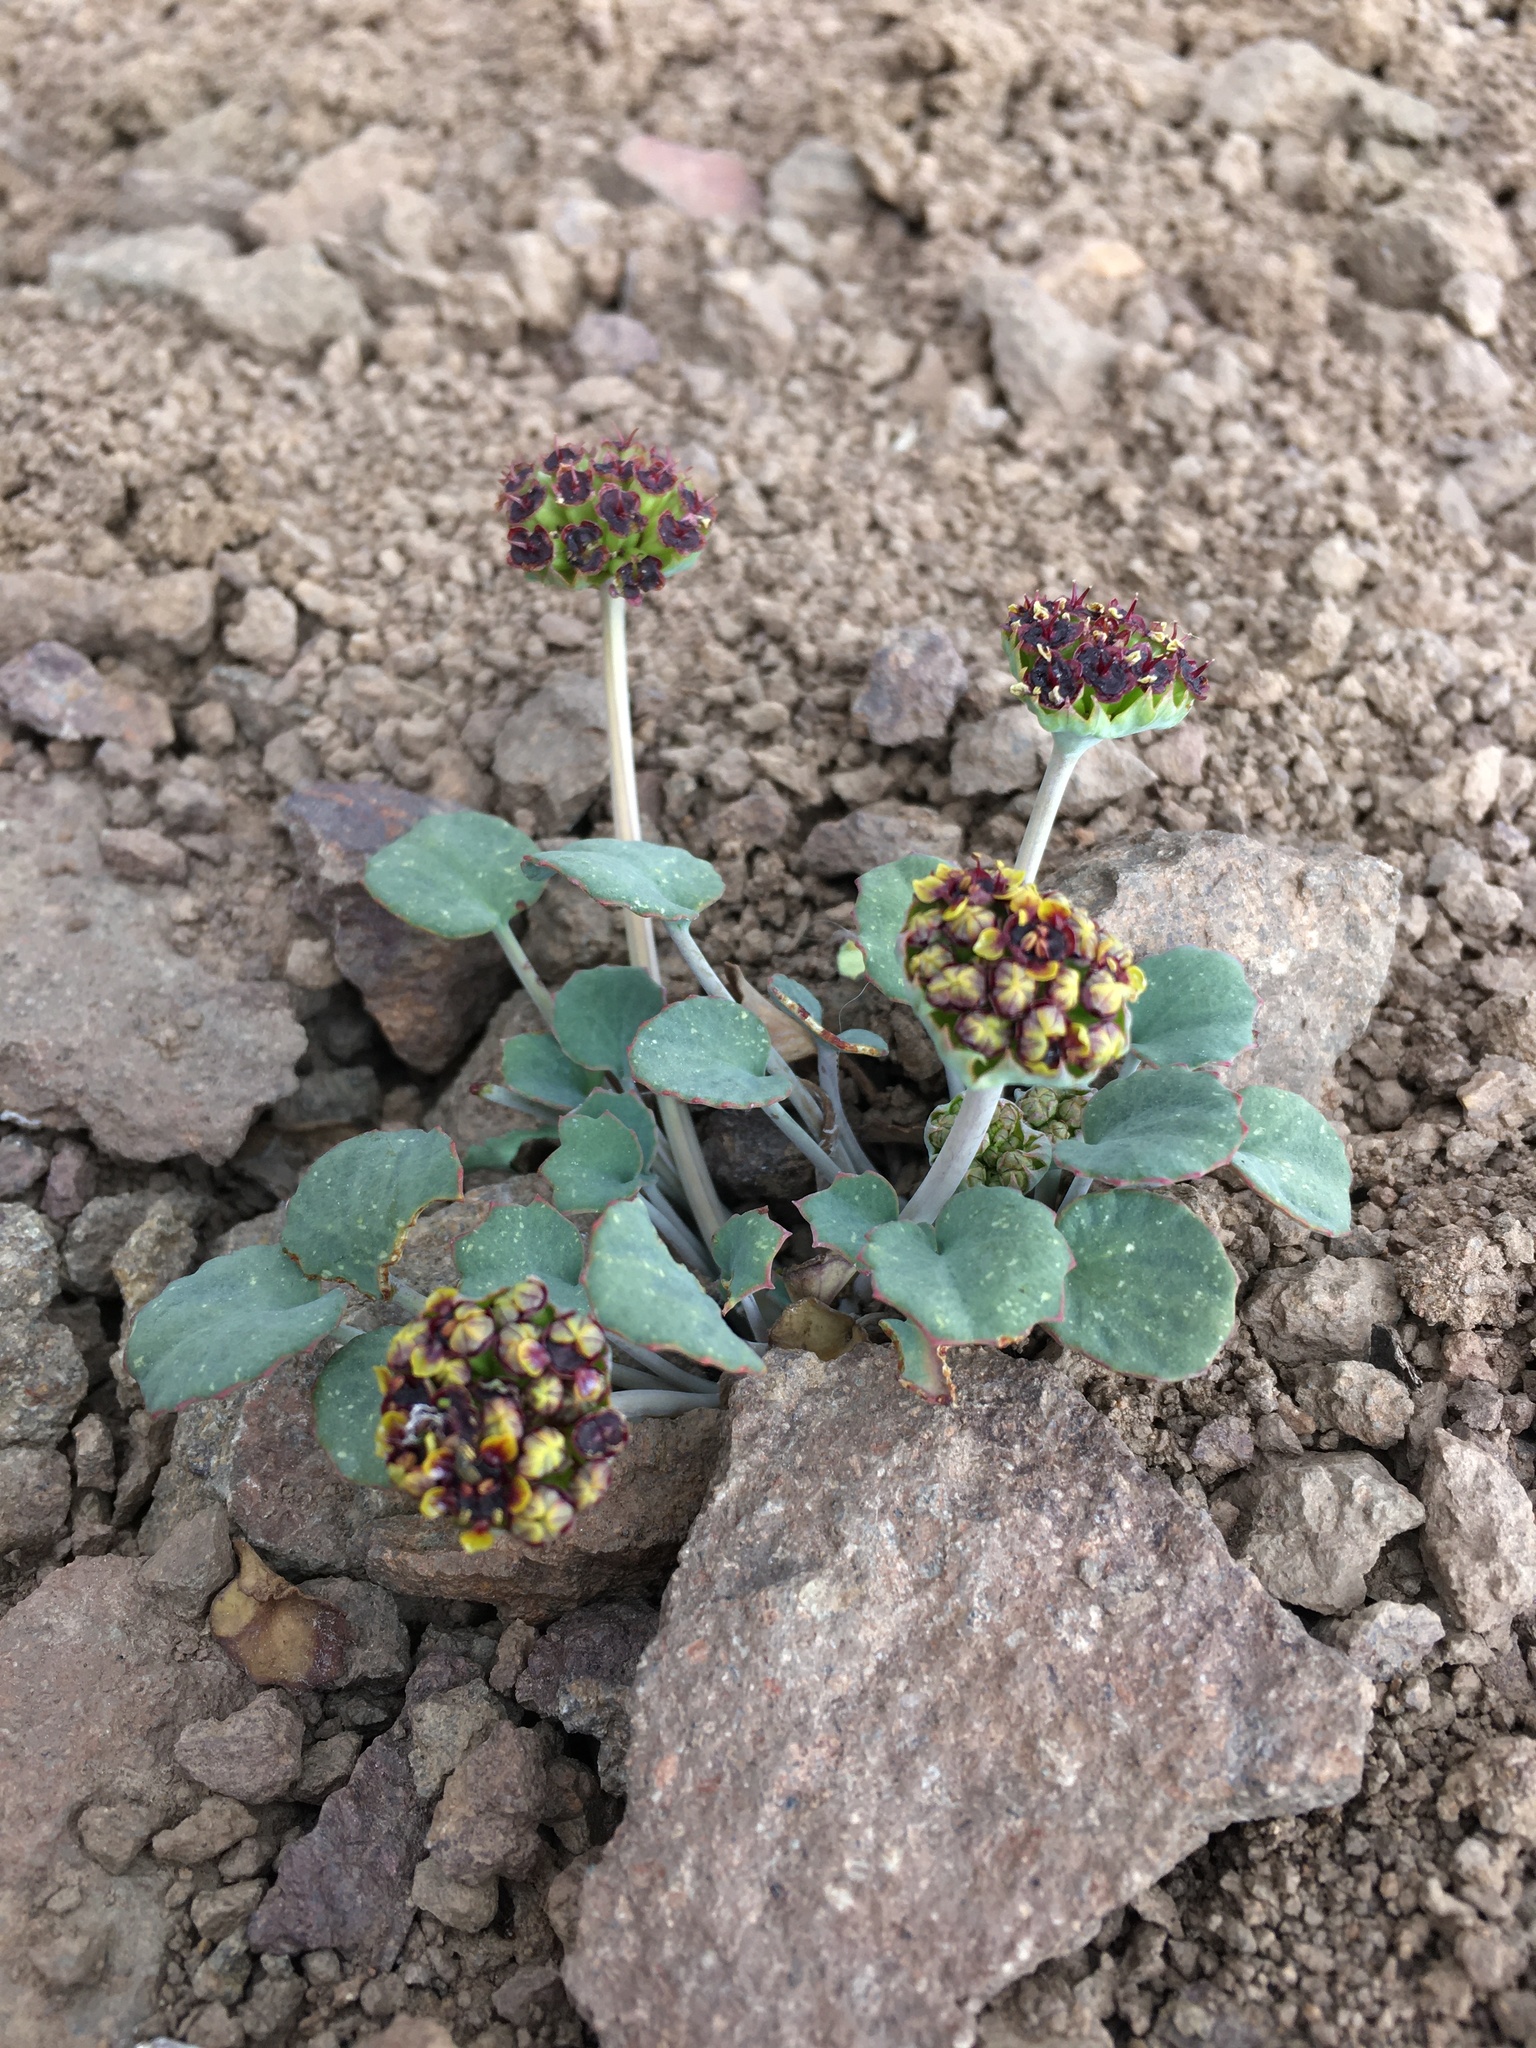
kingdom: Plantae
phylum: Tracheophyta
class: Magnoliopsida
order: Apiales
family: Apiaceae
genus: Pozoa
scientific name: Pozoa coriacea
